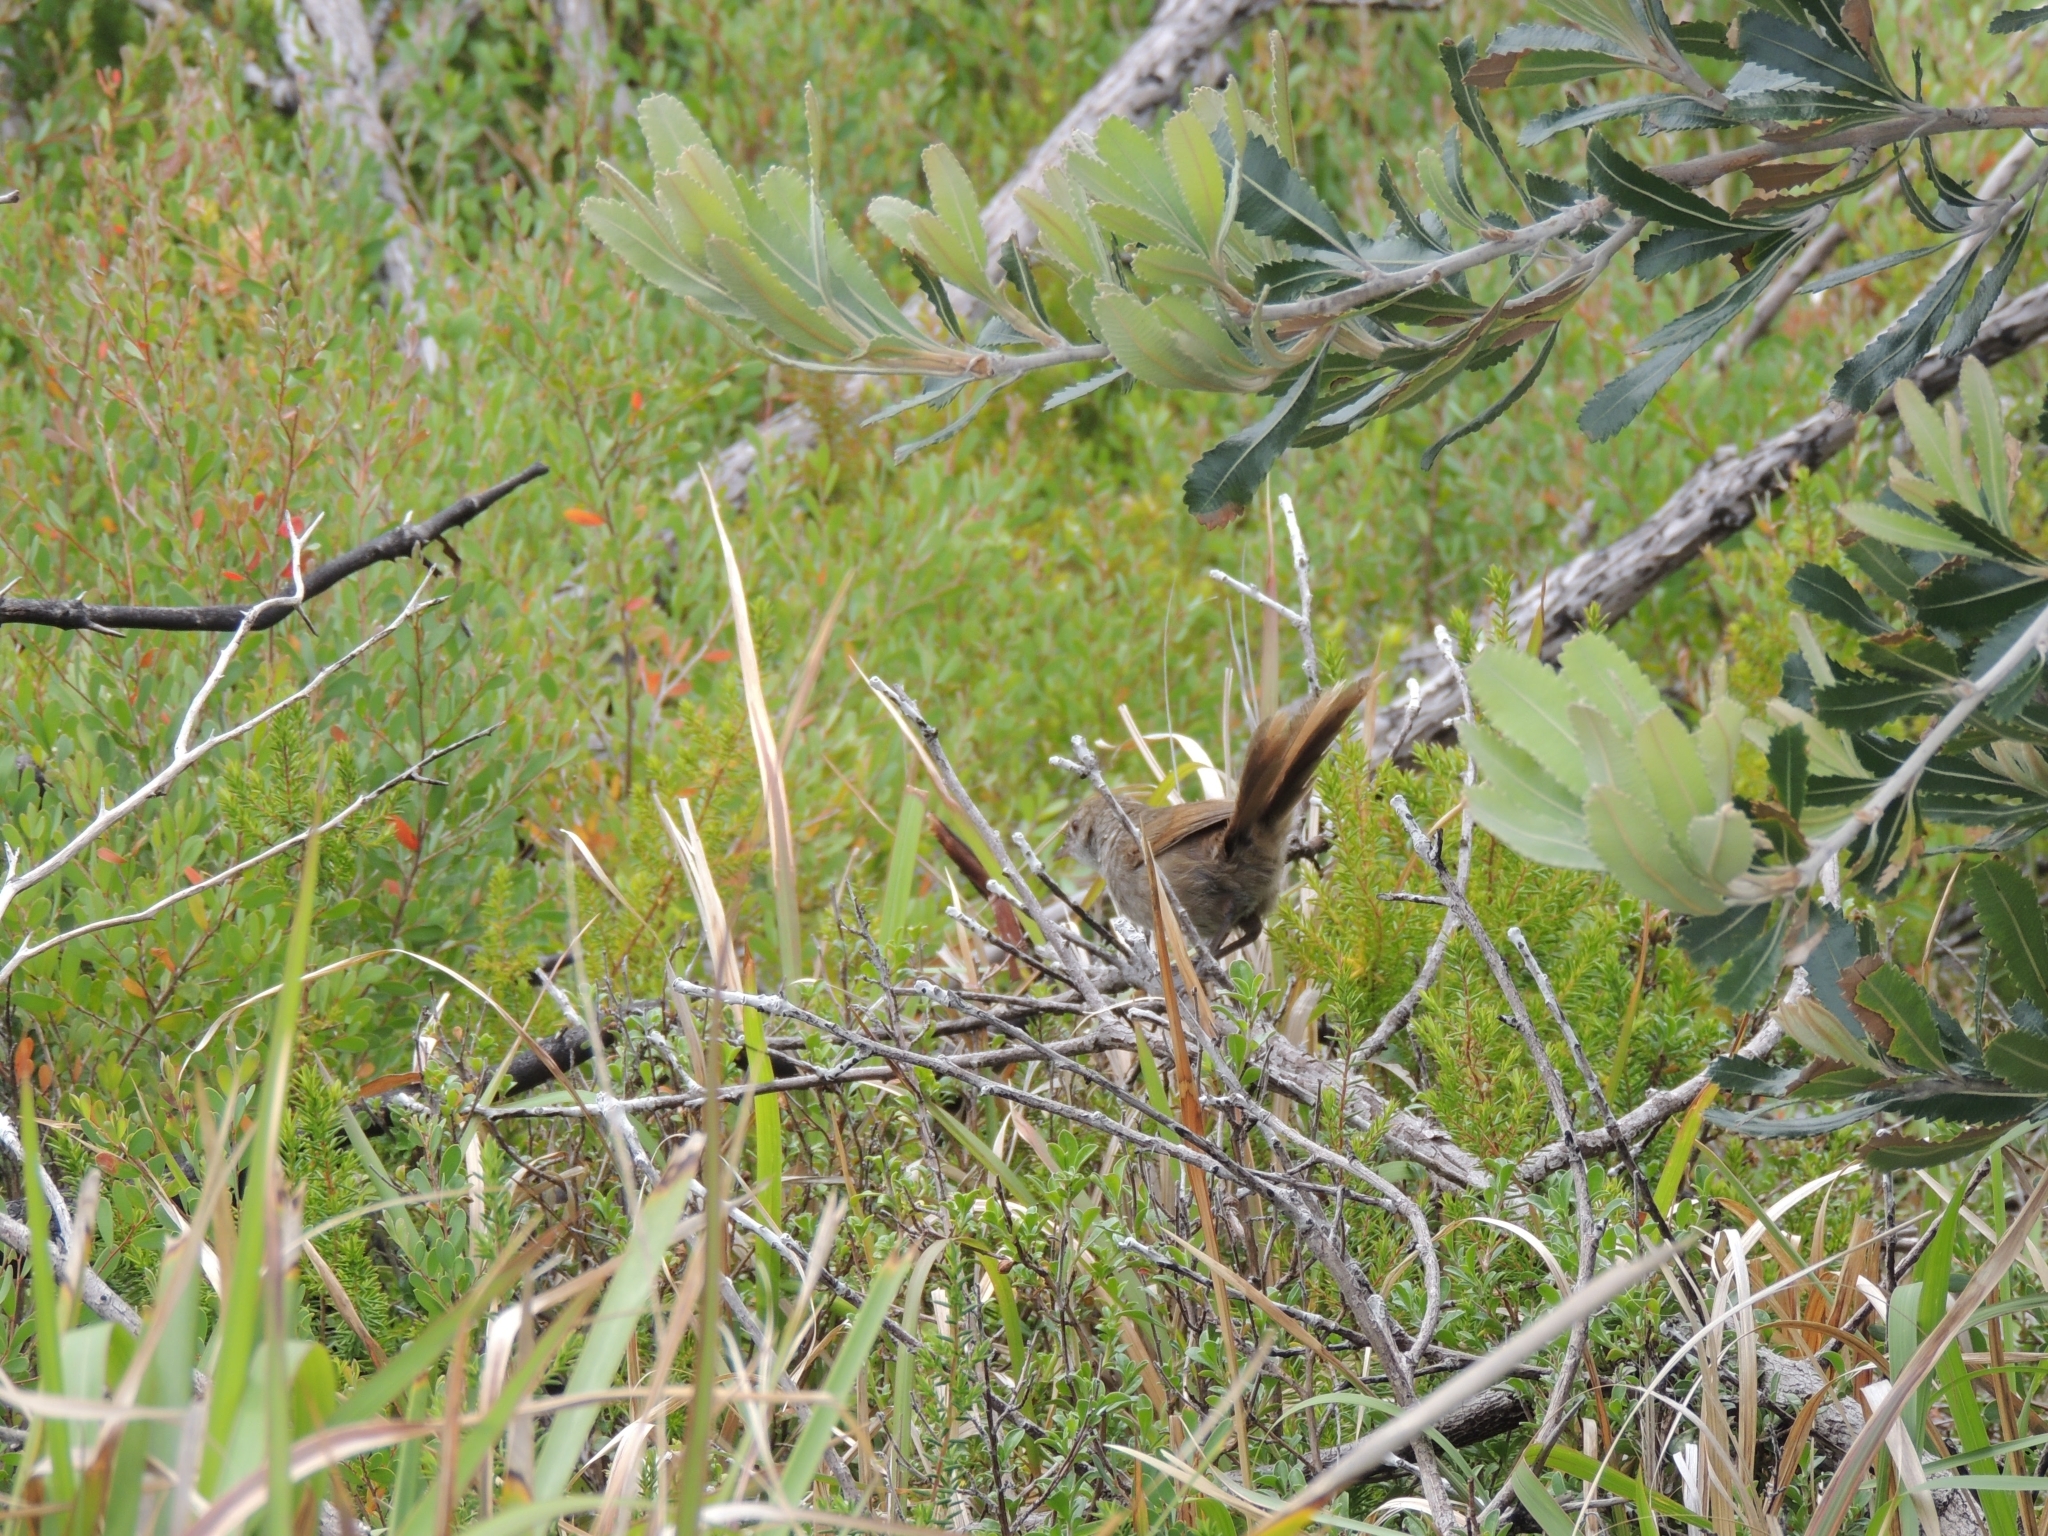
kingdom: Animalia
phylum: Chordata
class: Aves
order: Passeriformes
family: Dasyornithidae
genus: Dasyornis
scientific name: Dasyornis brachypterus
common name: Eastern bristlebird
